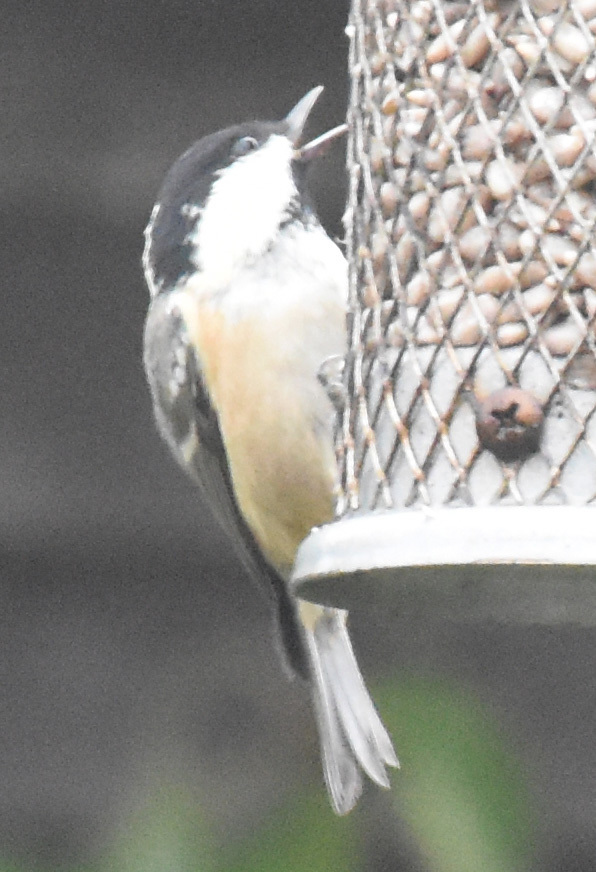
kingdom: Animalia
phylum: Chordata
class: Aves
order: Passeriformes
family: Paridae
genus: Periparus
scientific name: Periparus ater
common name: Coal tit
